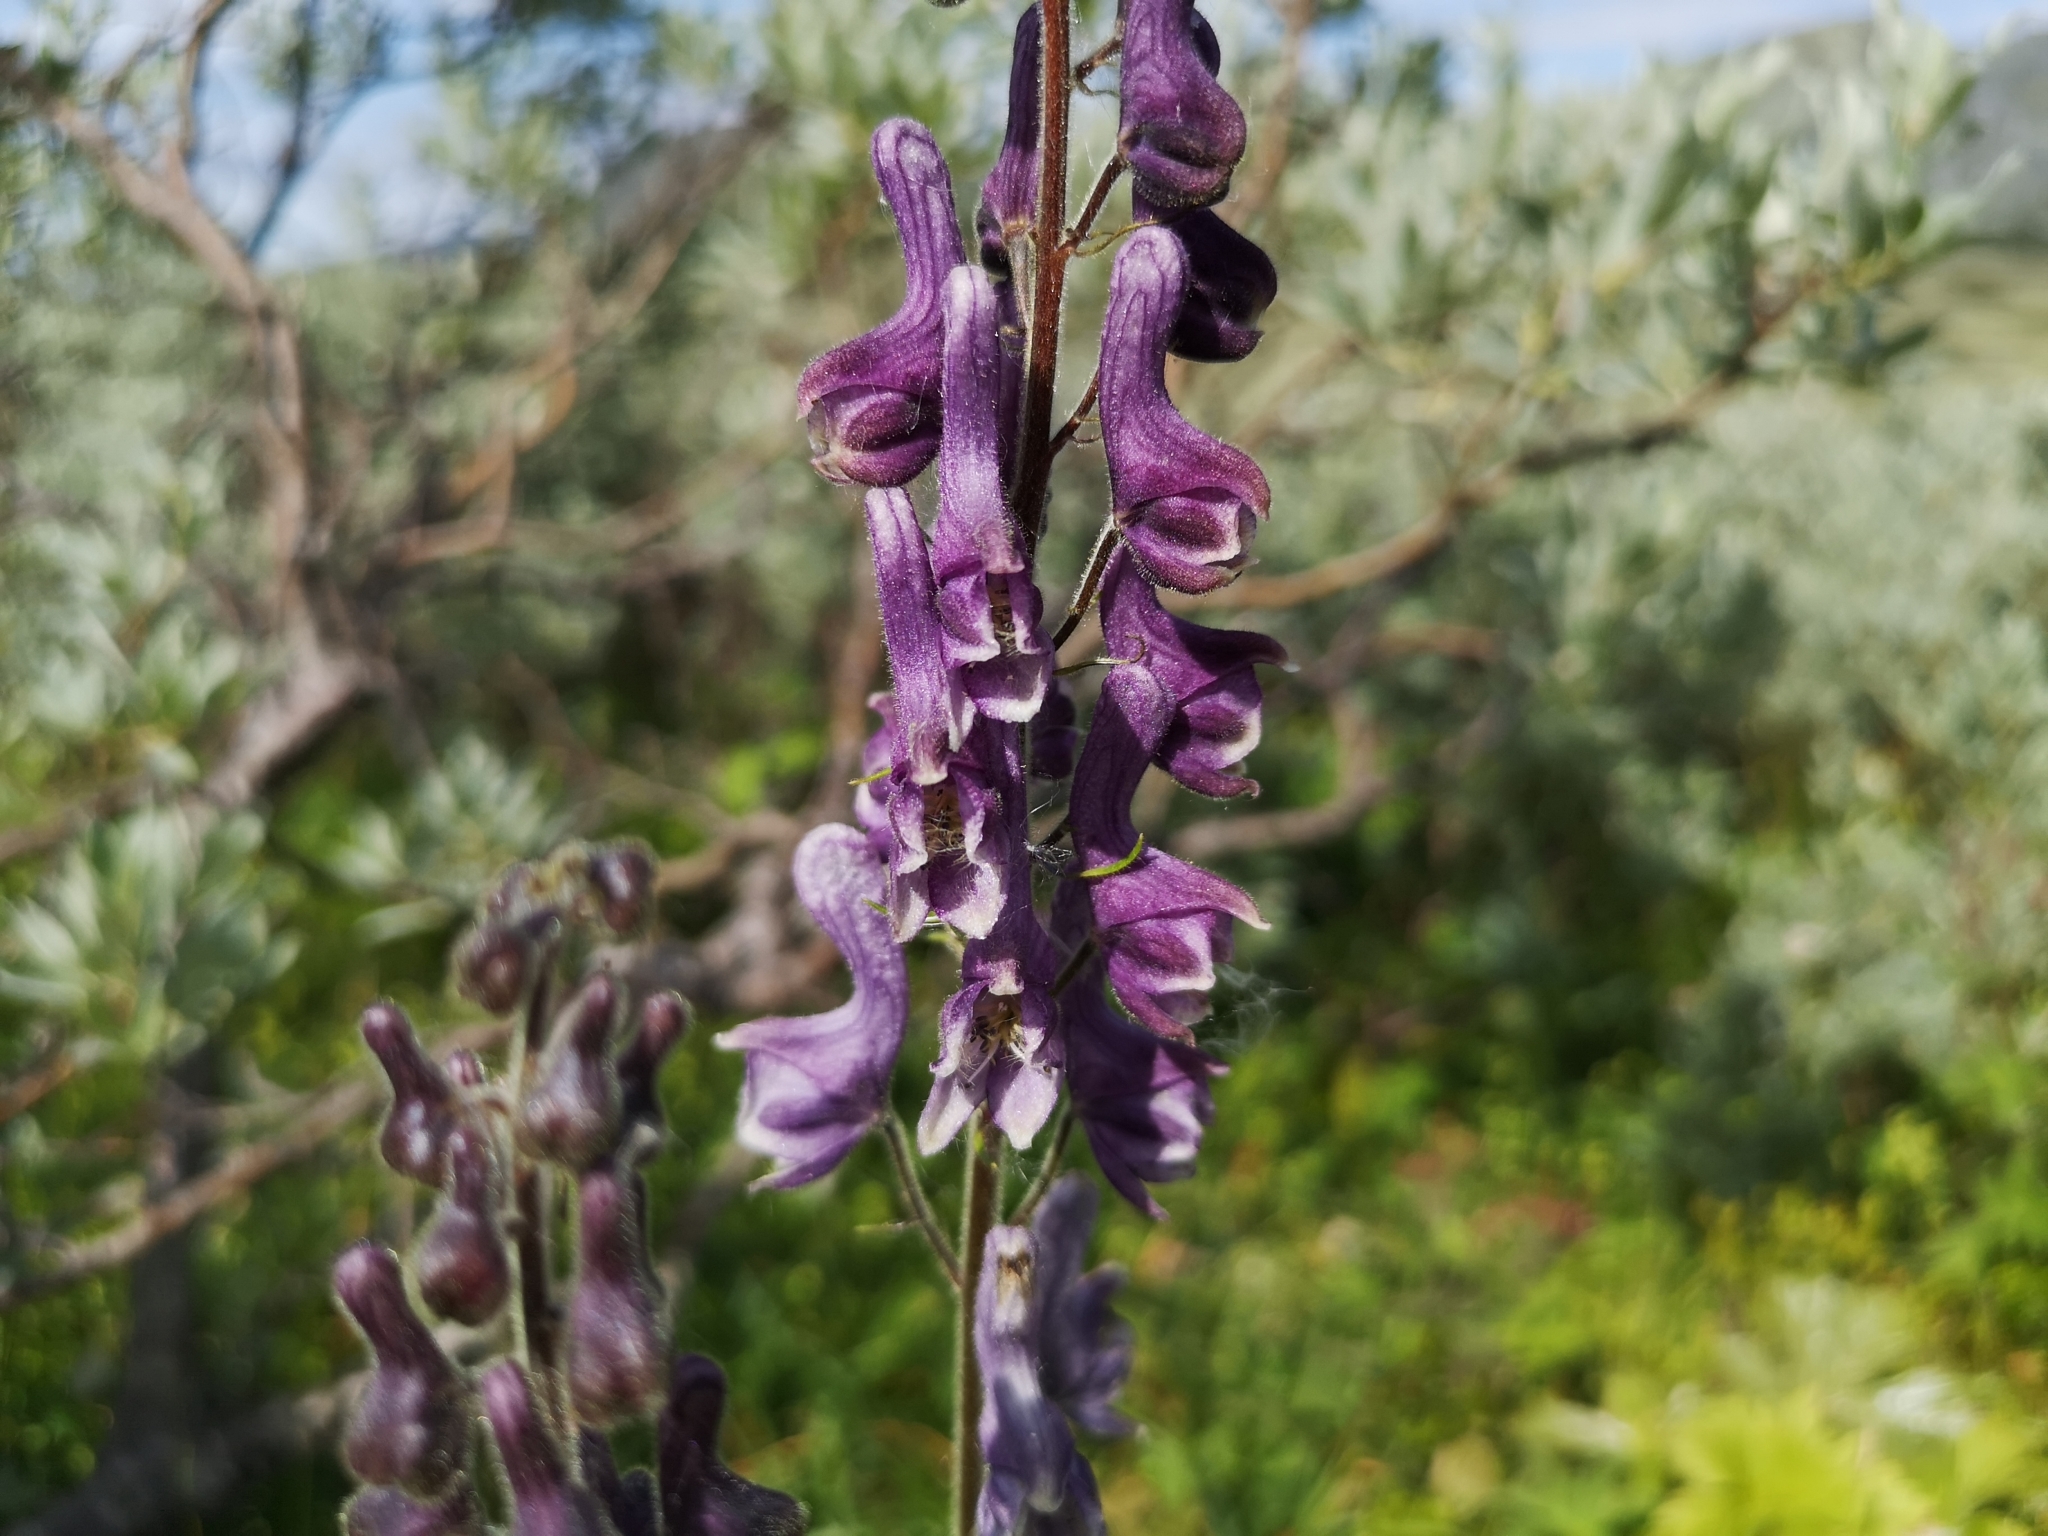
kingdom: Plantae
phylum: Tracheophyta
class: Magnoliopsida
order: Ranunculales
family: Ranunculaceae
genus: Aconitum
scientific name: Aconitum septentrionale
